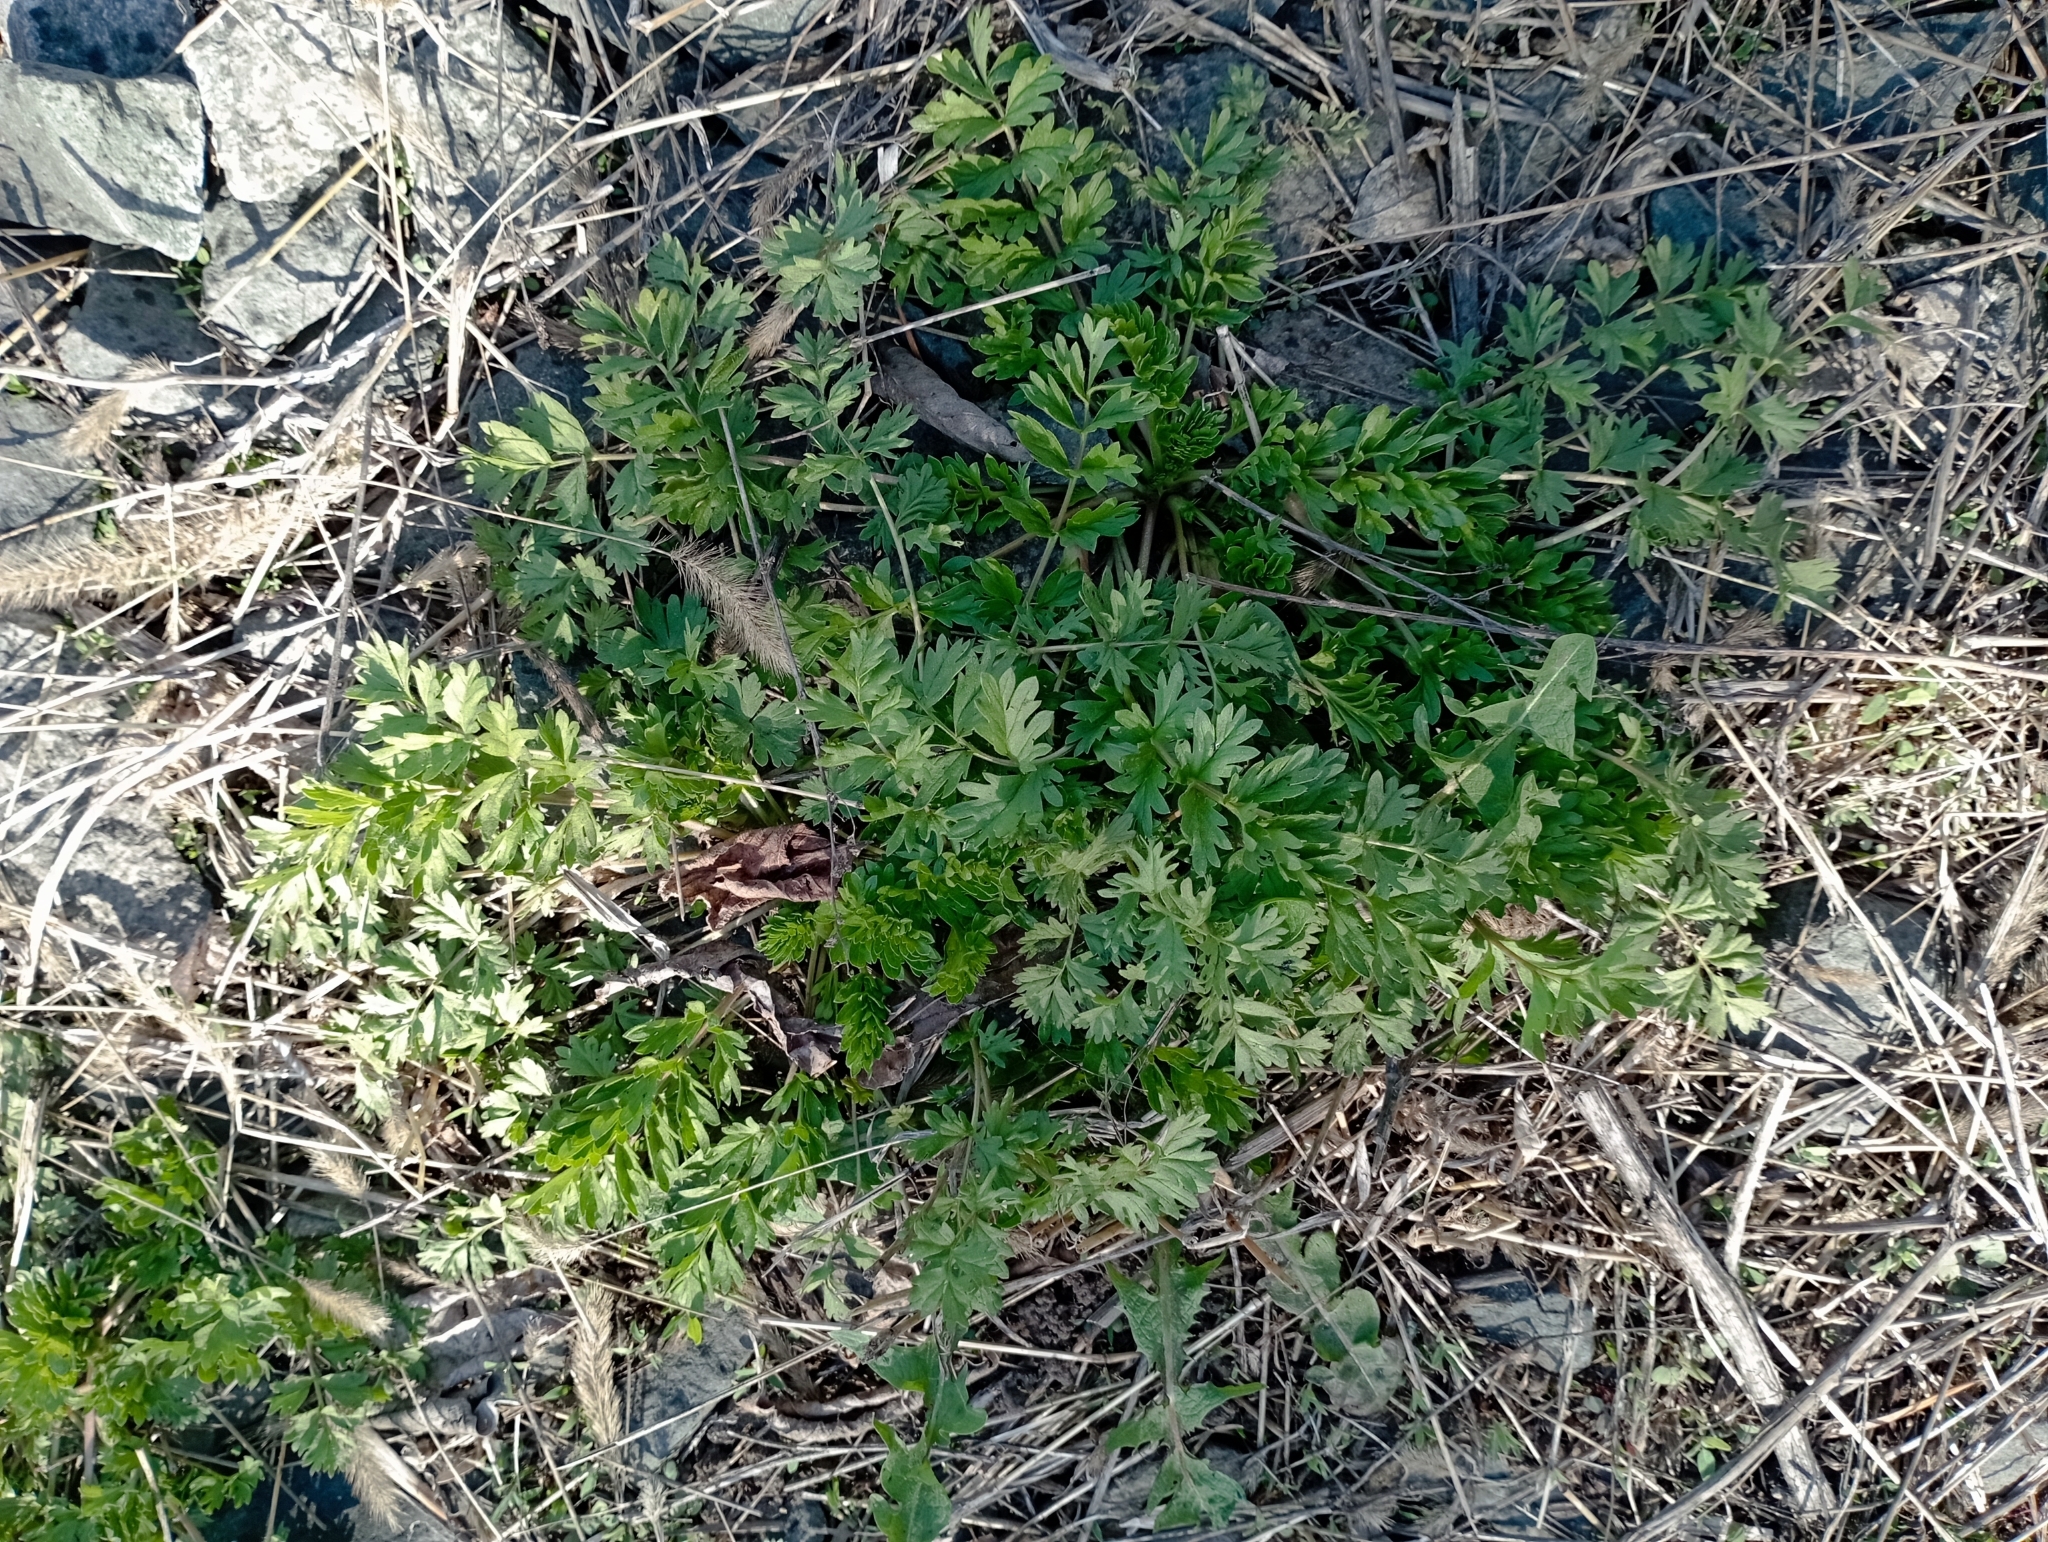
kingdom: Plantae
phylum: Tracheophyta
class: Magnoliopsida
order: Rosales
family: Rosaceae
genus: Potentilla
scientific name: Potentilla supina
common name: Prostrate cinquefoil
